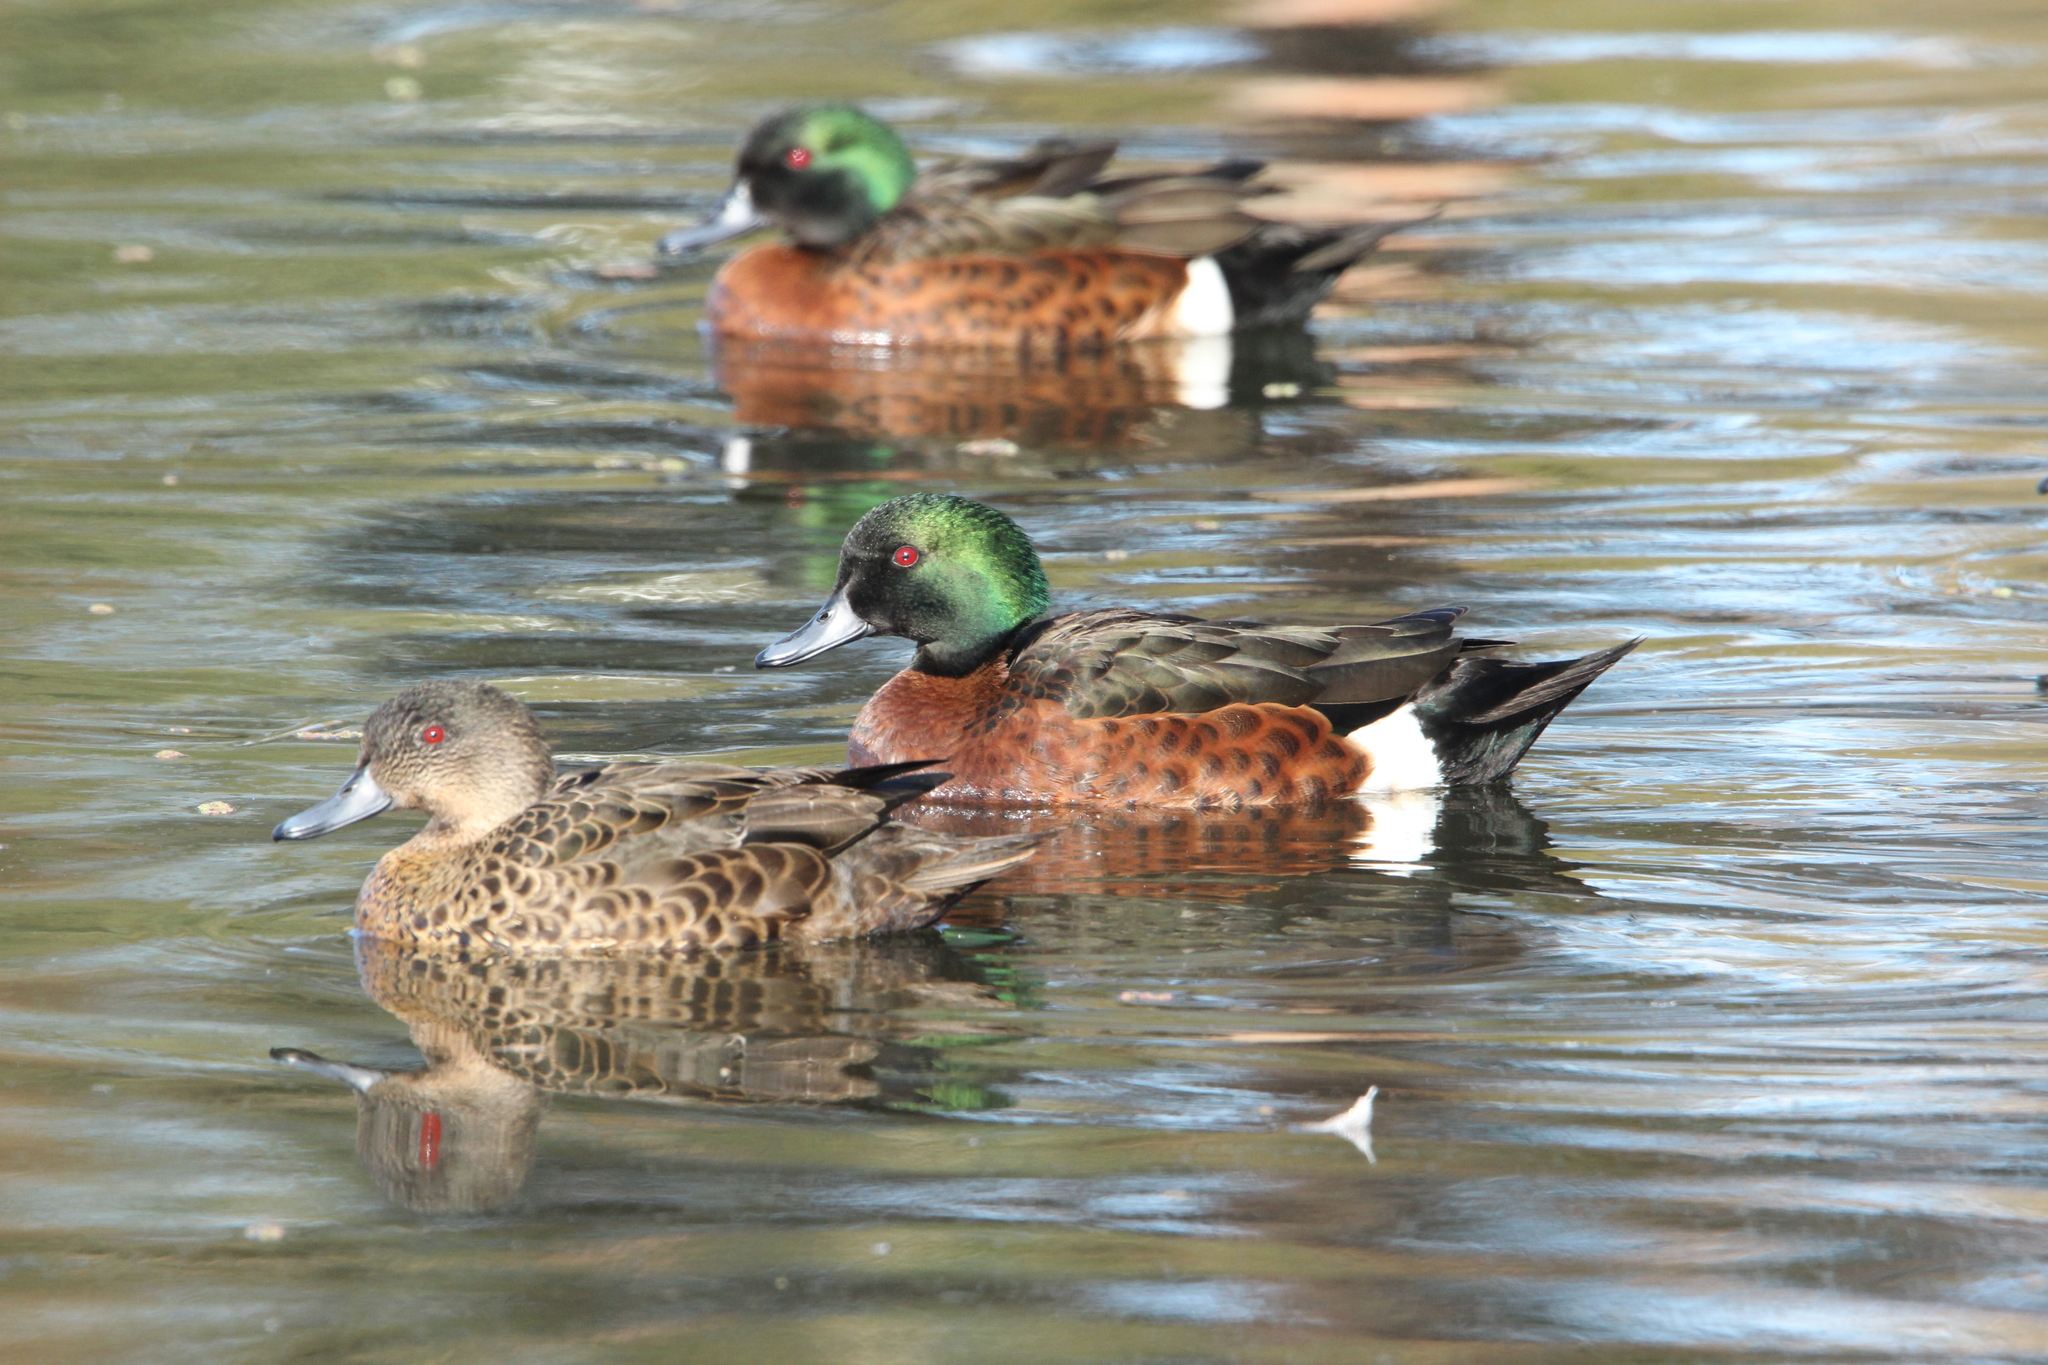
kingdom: Animalia
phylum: Chordata
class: Aves
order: Anseriformes
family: Anatidae
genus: Anas
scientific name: Anas castanea
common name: Chestnut teal
